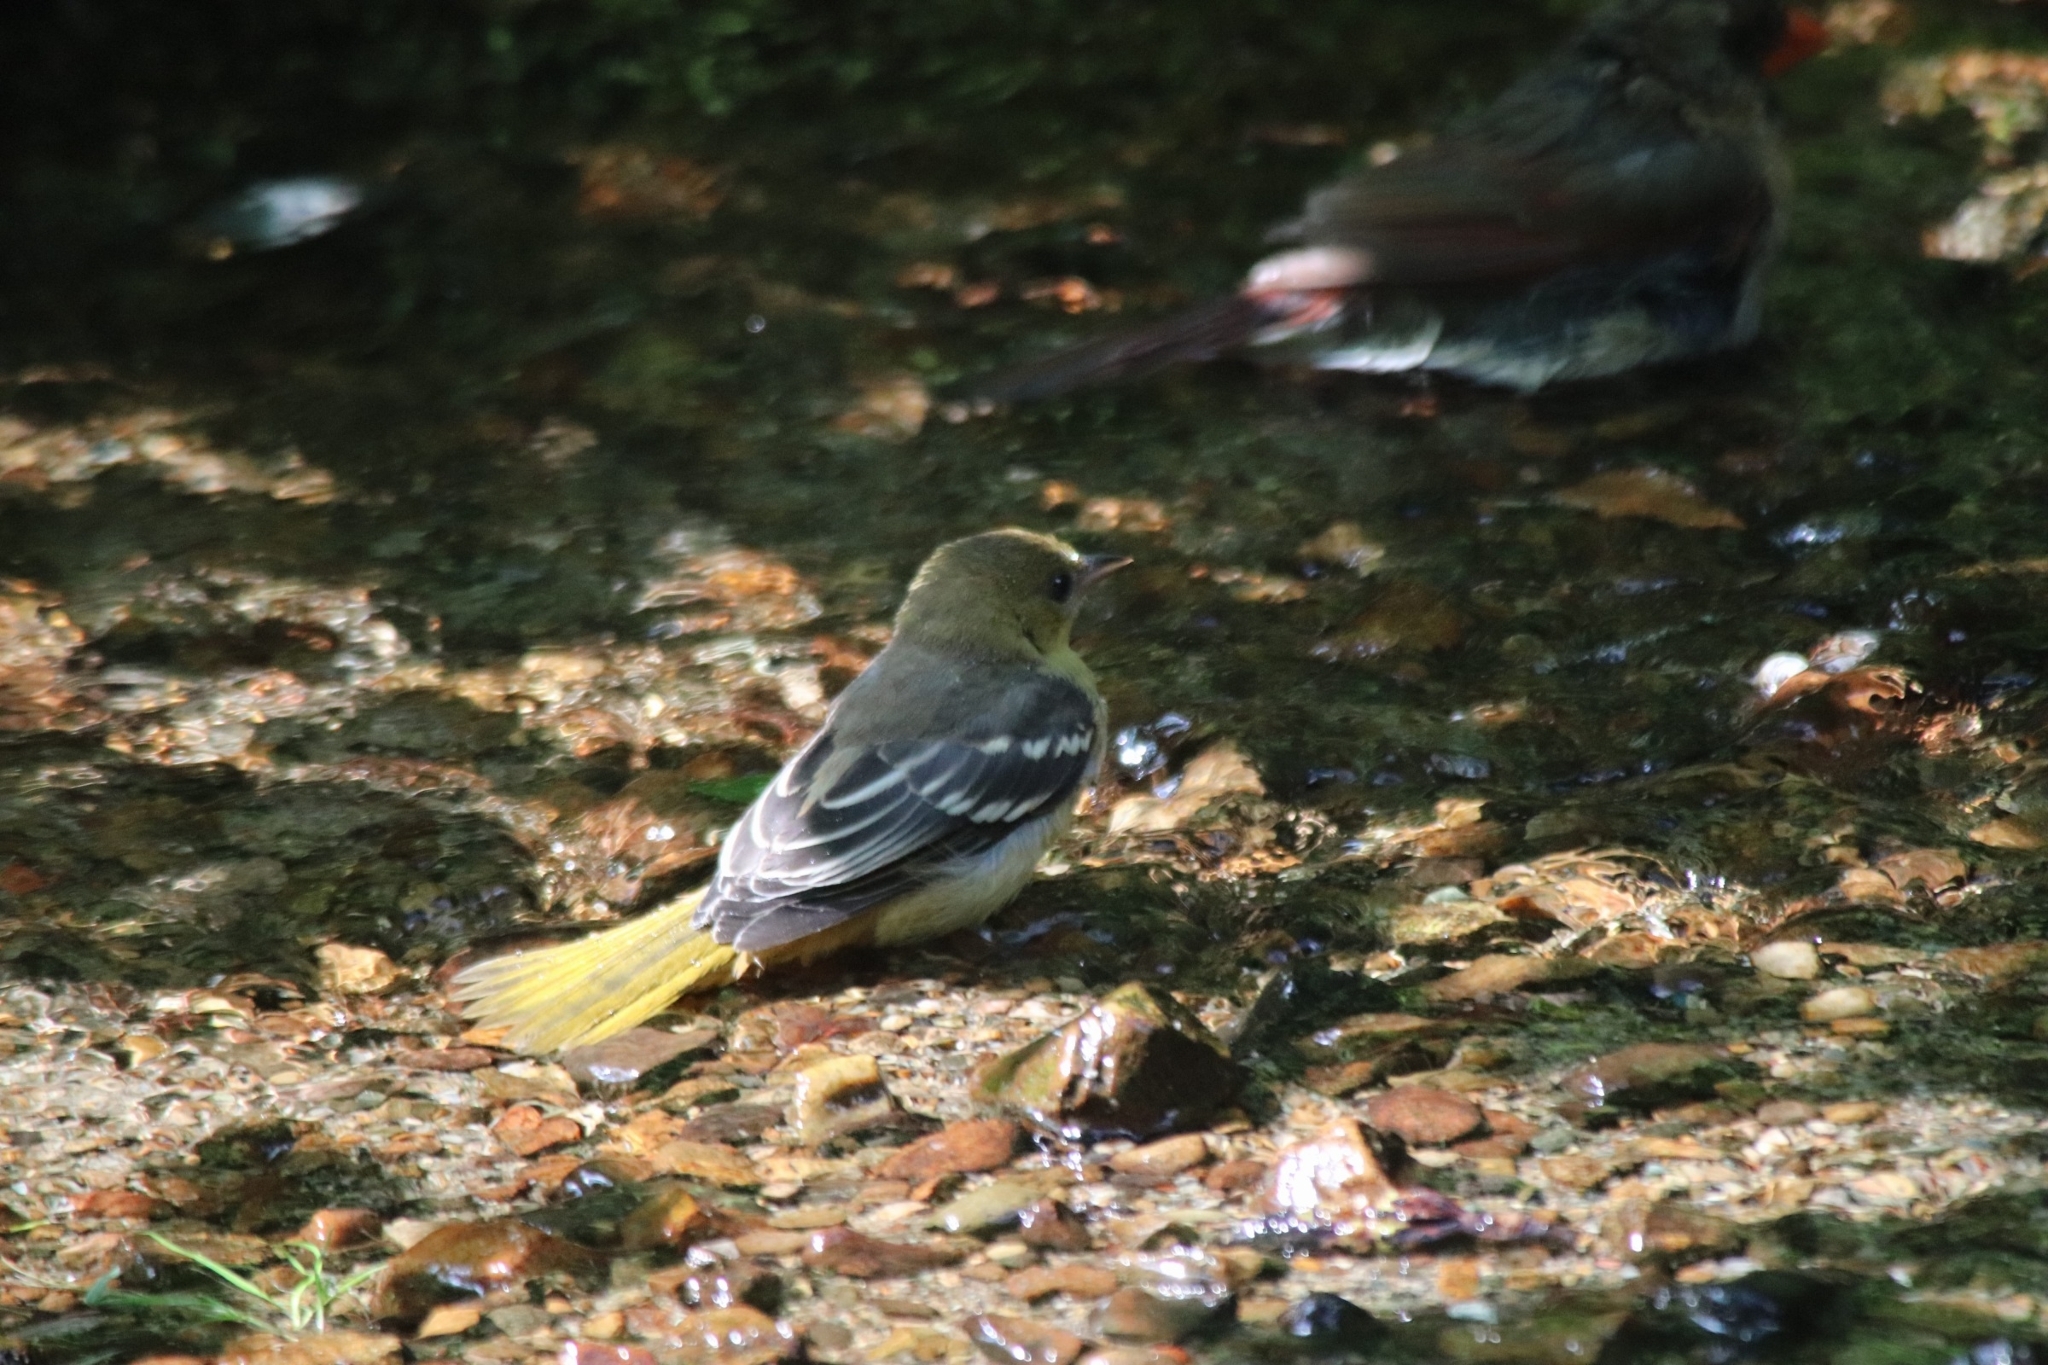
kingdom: Animalia
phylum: Chordata
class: Aves
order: Passeriformes
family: Icteridae
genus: Icterus
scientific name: Icterus galbula
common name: Baltimore oriole
